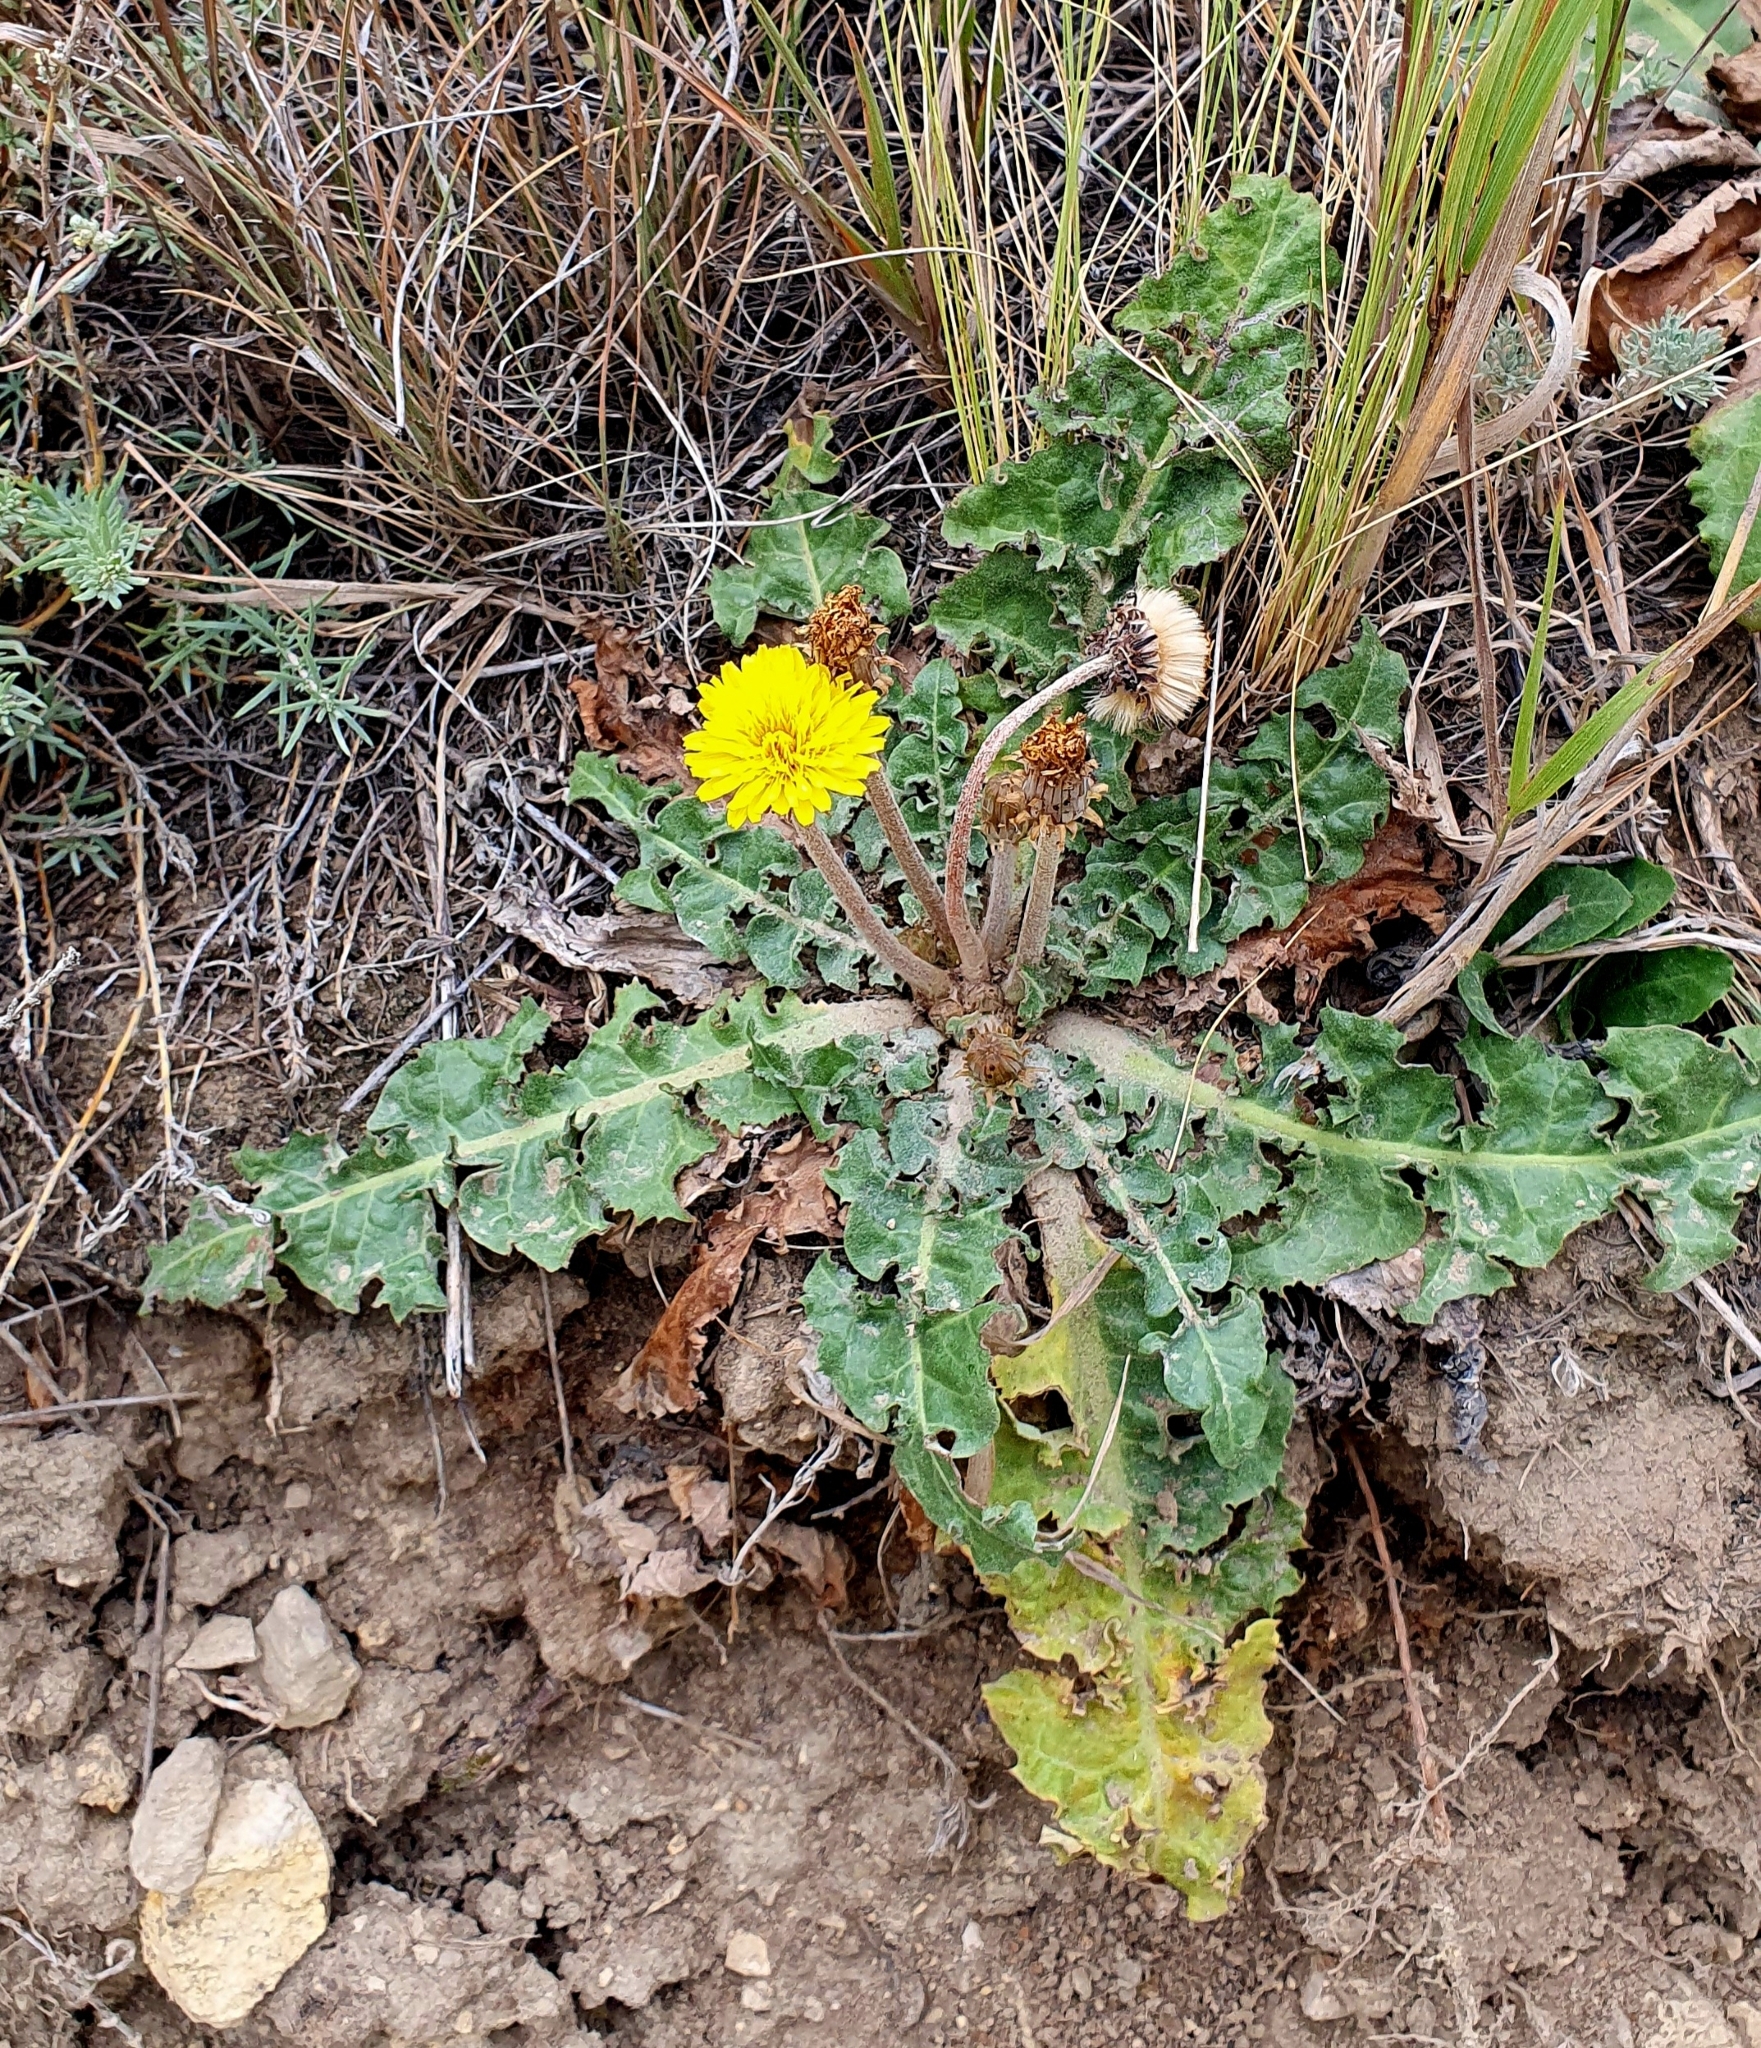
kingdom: Plantae
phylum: Tracheophyta
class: Magnoliopsida
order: Asterales
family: Asteraceae
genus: Taraxacum
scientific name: Taraxacum serotinum
